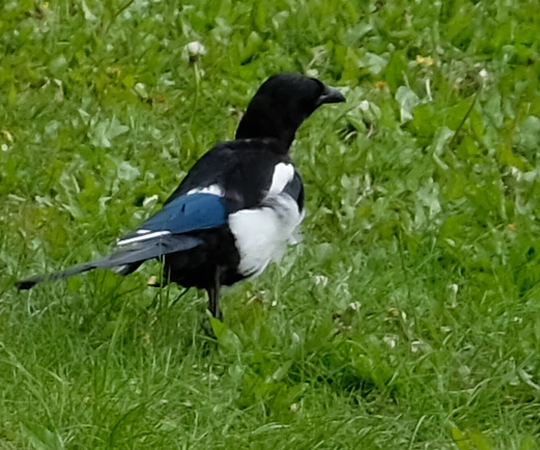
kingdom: Animalia
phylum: Chordata
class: Aves
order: Passeriformes
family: Corvidae
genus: Pica
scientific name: Pica hudsonia
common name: Black-billed magpie
